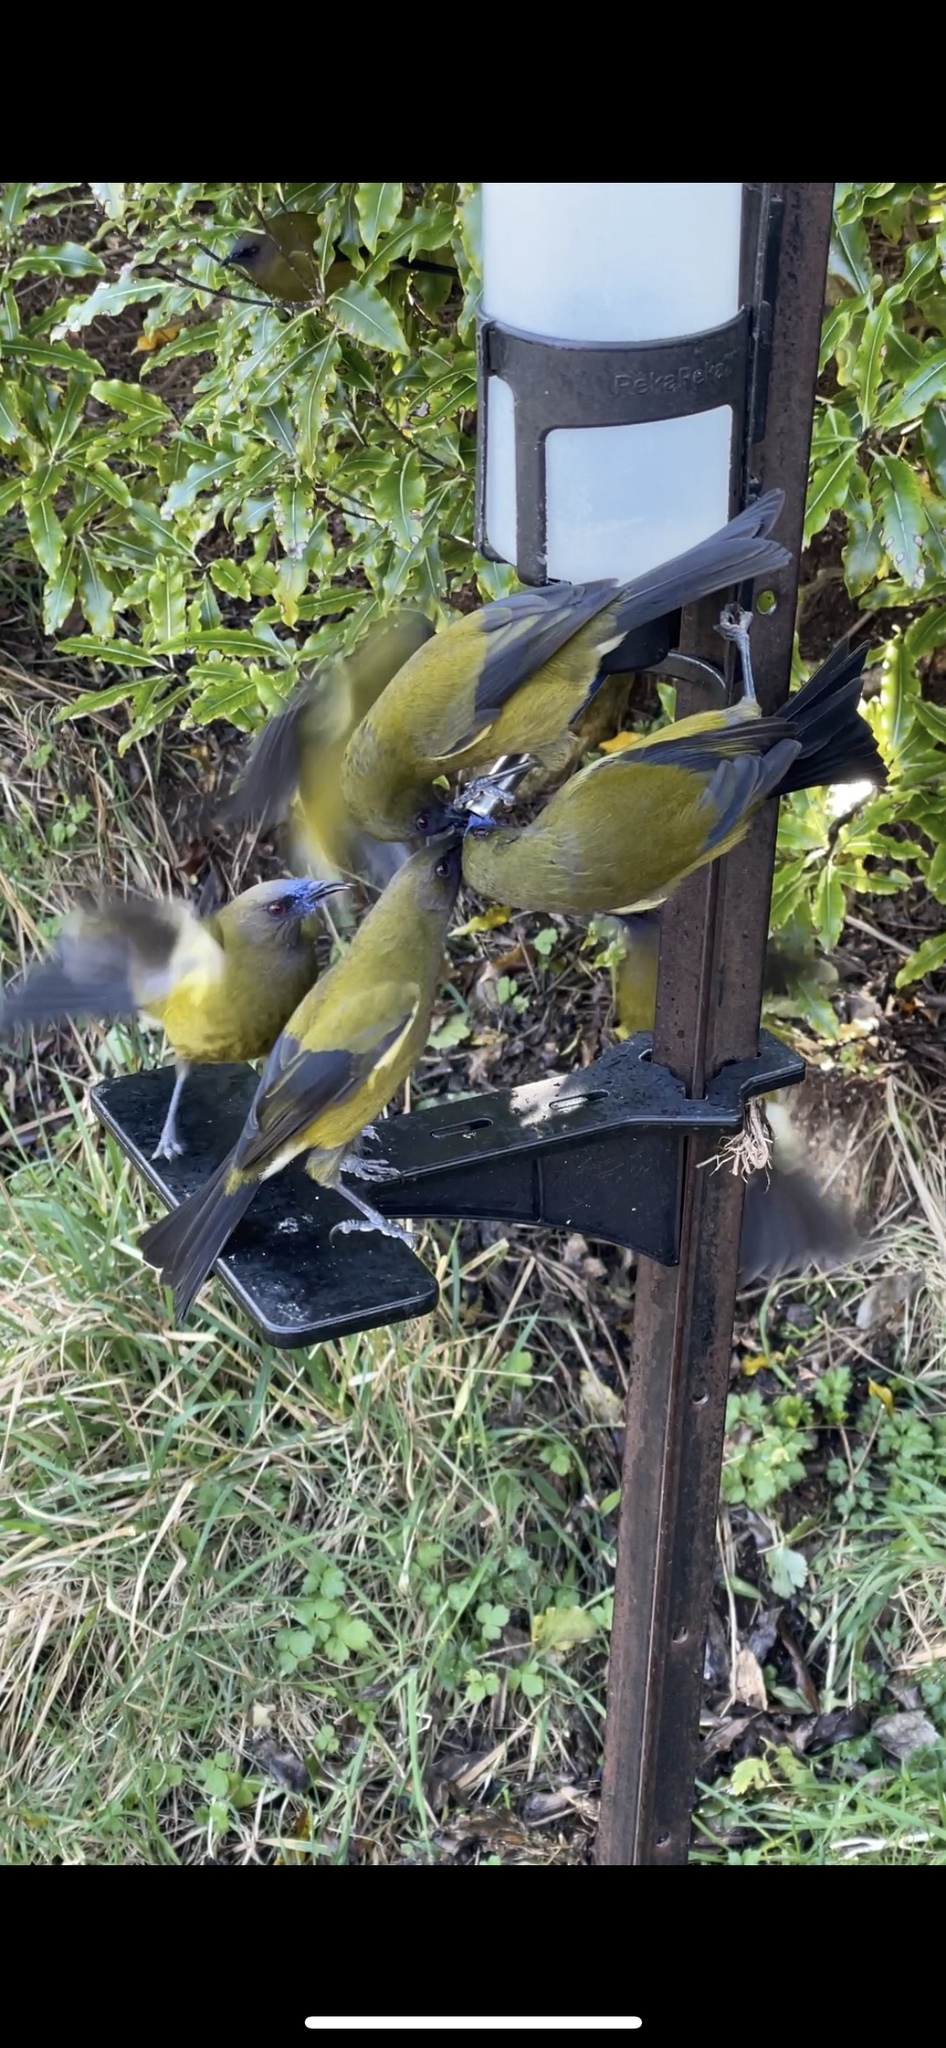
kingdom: Animalia
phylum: Chordata
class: Aves
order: Passeriformes
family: Meliphagidae
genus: Anthornis
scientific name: Anthornis melanura
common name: New zealand bellbird
